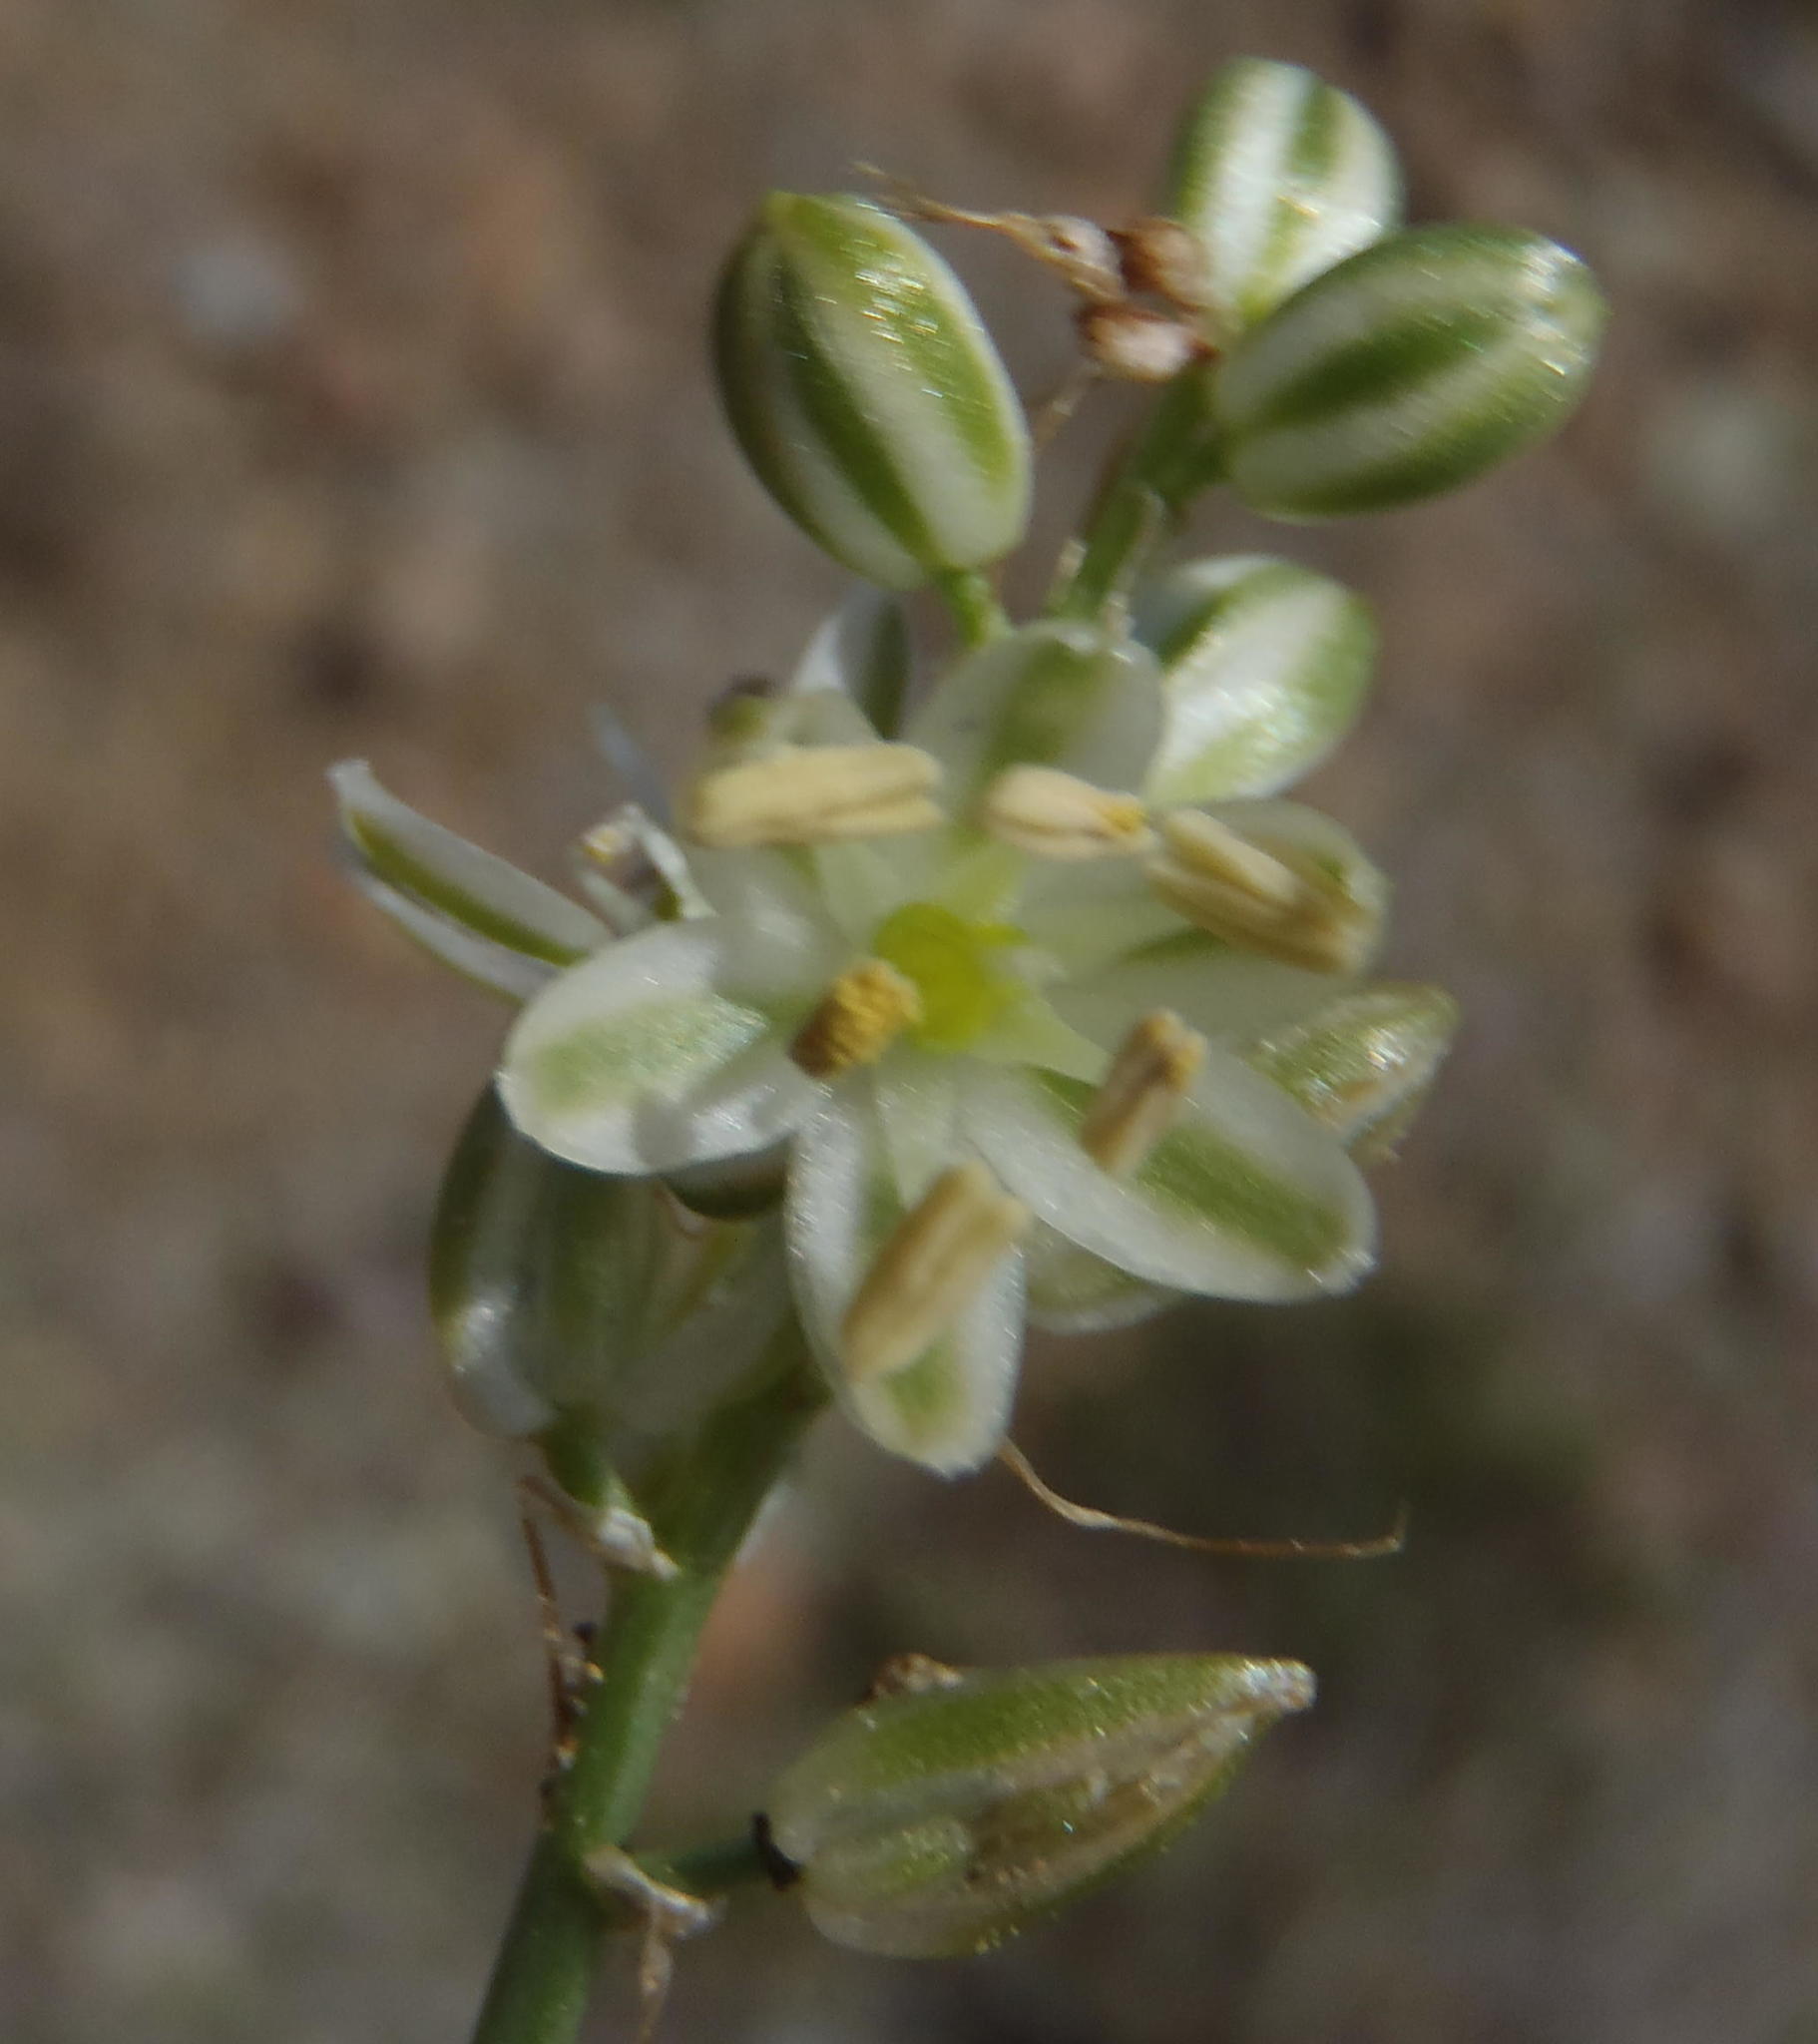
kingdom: Plantae
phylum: Tracheophyta
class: Liliopsida
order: Asparagales
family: Asparagaceae
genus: Albuca
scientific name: Albuca virens
